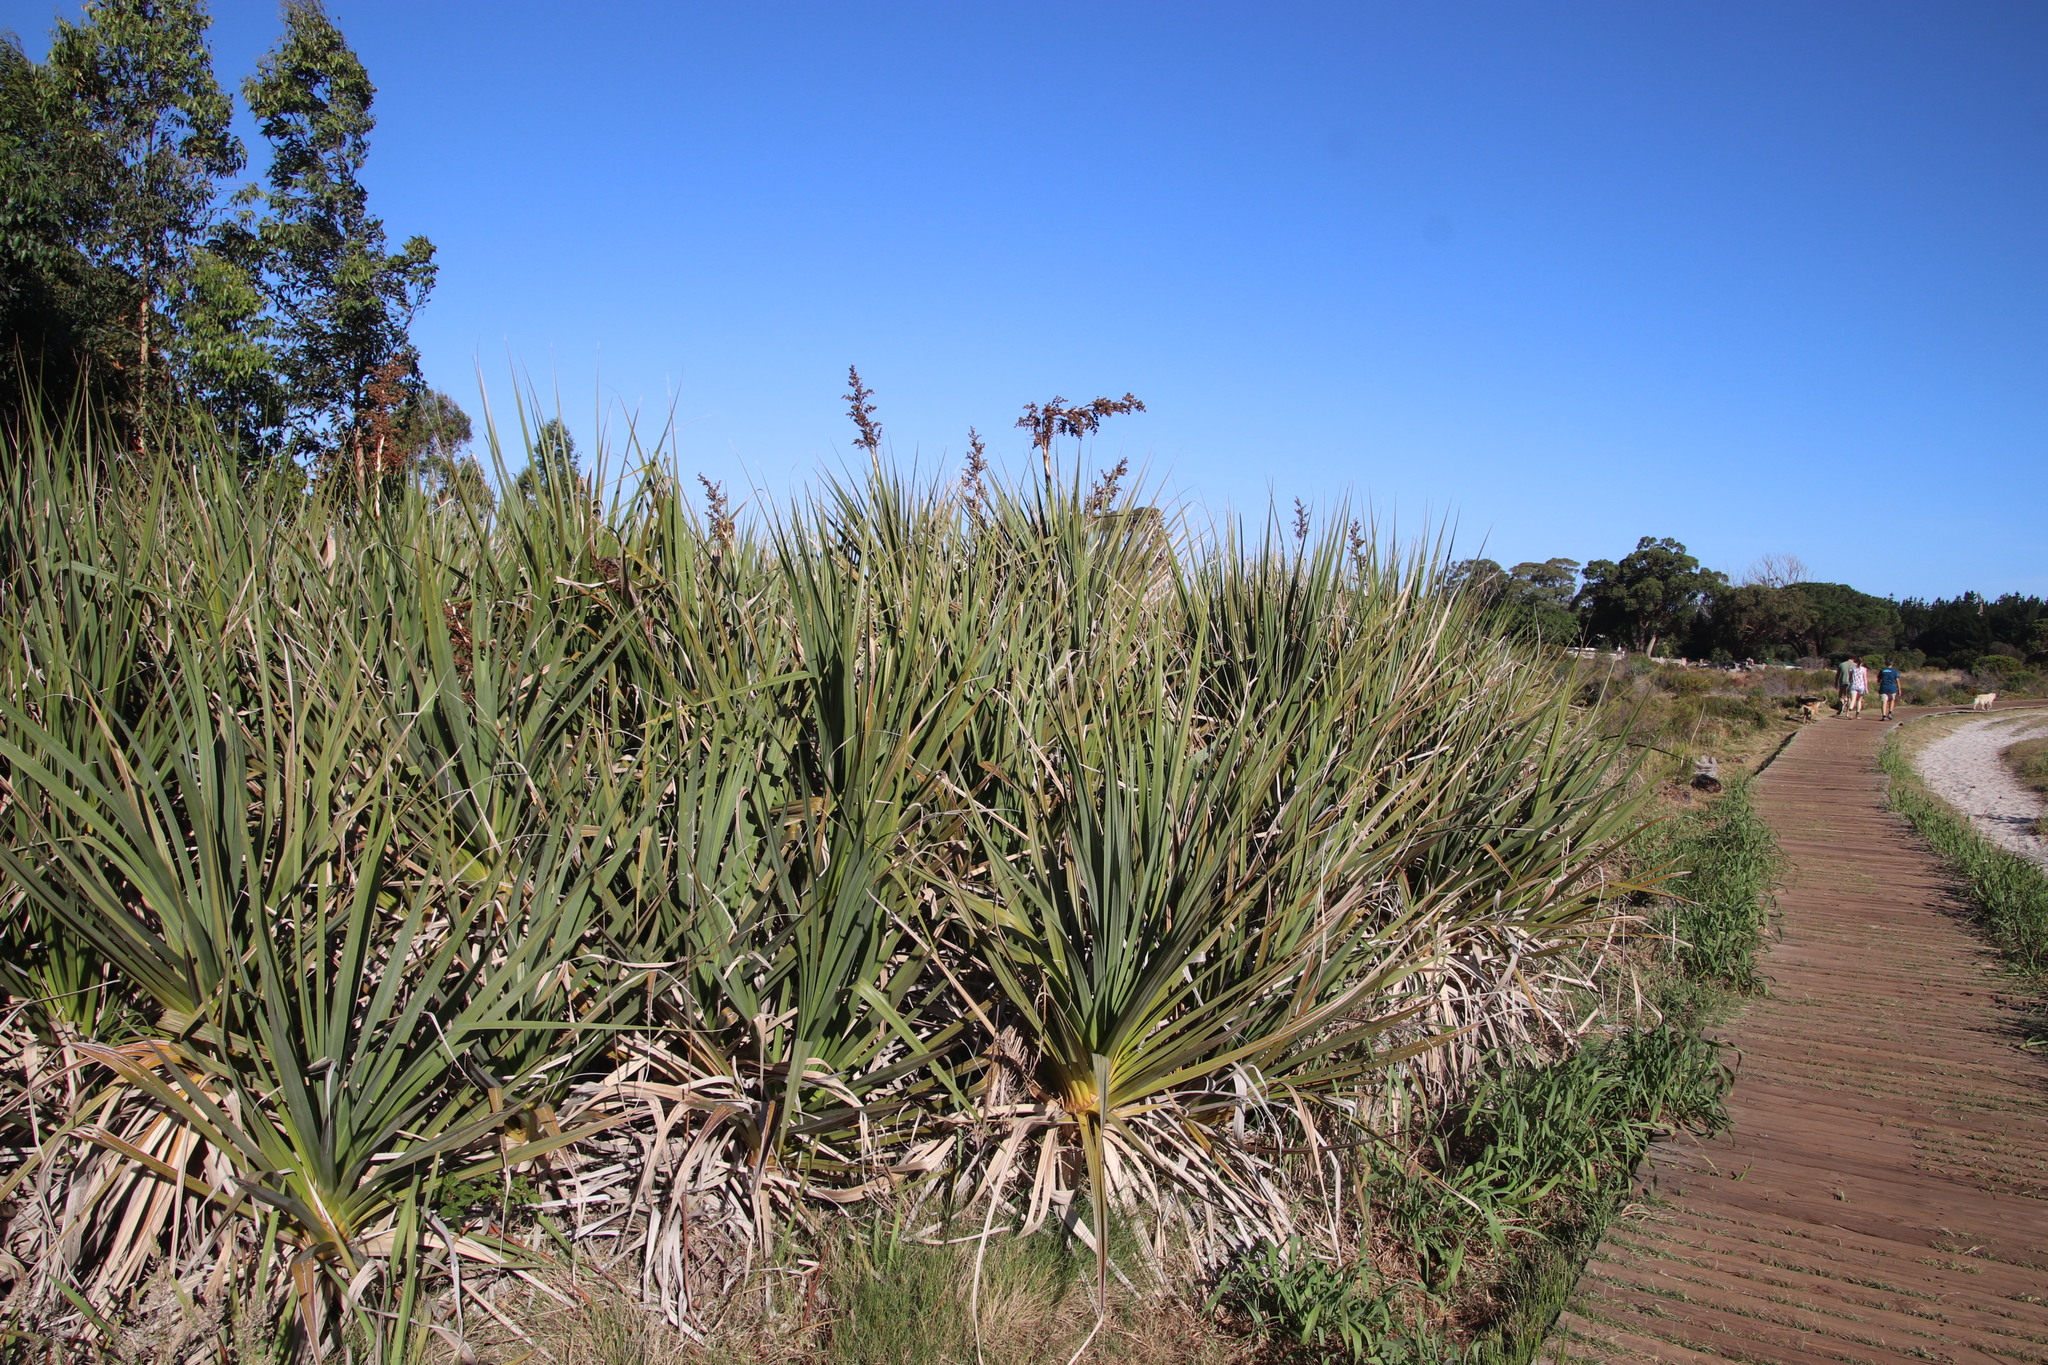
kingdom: Plantae
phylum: Tracheophyta
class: Liliopsida
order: Poales
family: Thurniaceae
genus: Prionium
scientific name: Prionium serratum
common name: Palmiet
